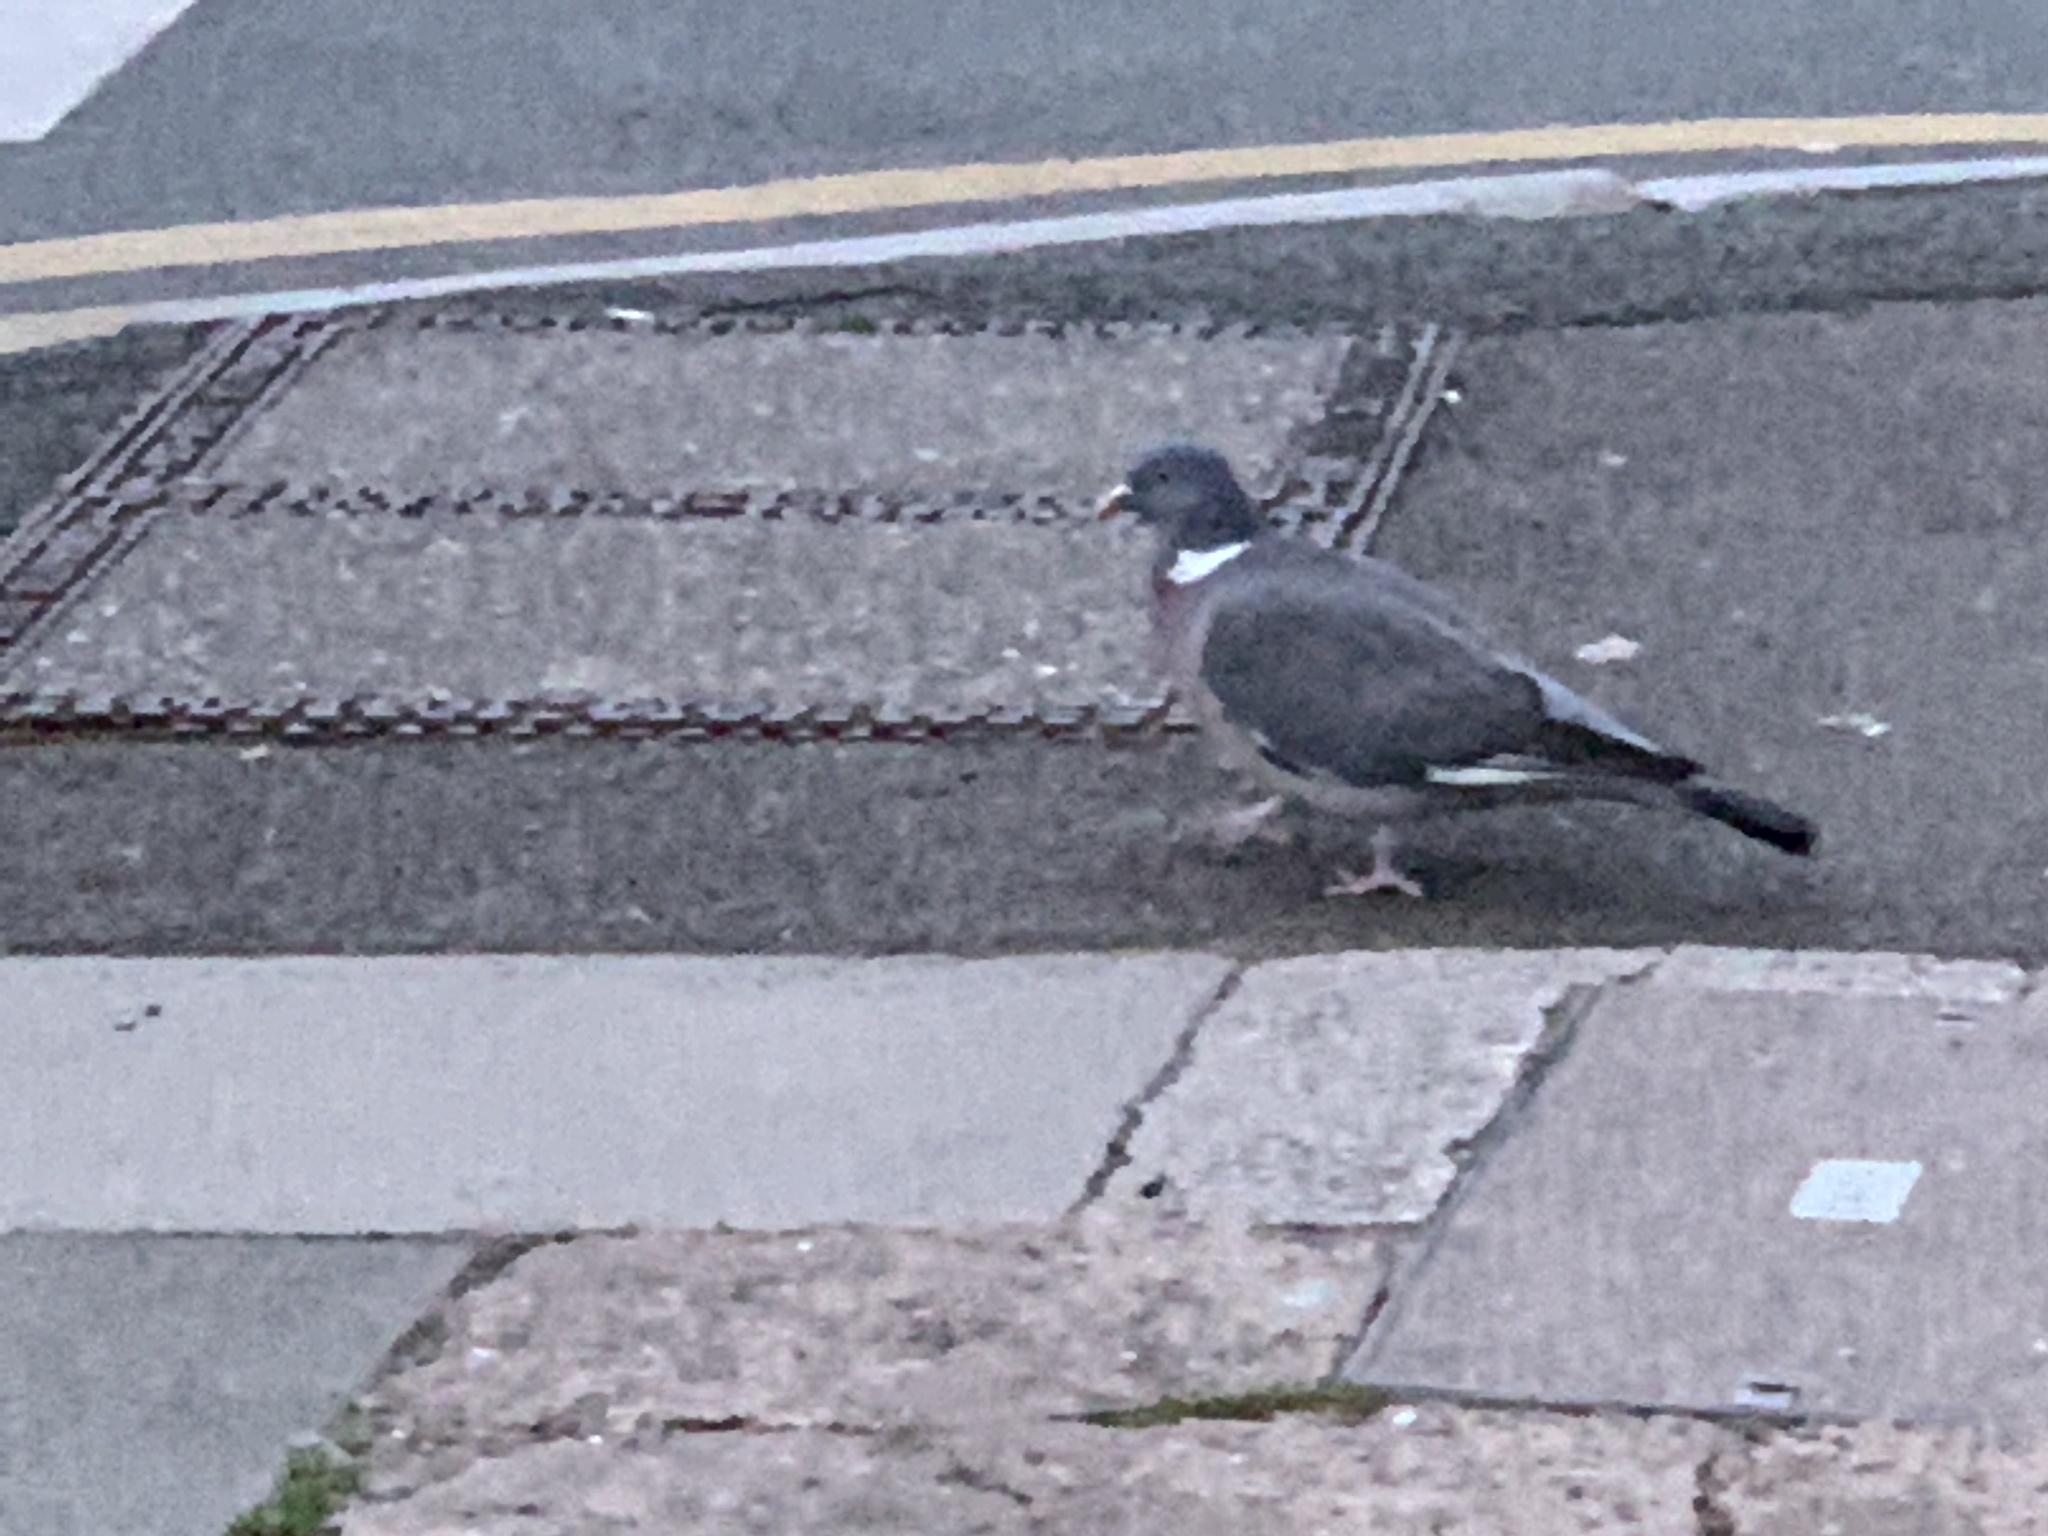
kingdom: Animalia
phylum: Chordata
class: Aves
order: Columbiformes
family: Columbidae
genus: Columba
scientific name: Columba palumbus
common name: Common wood pigeon
